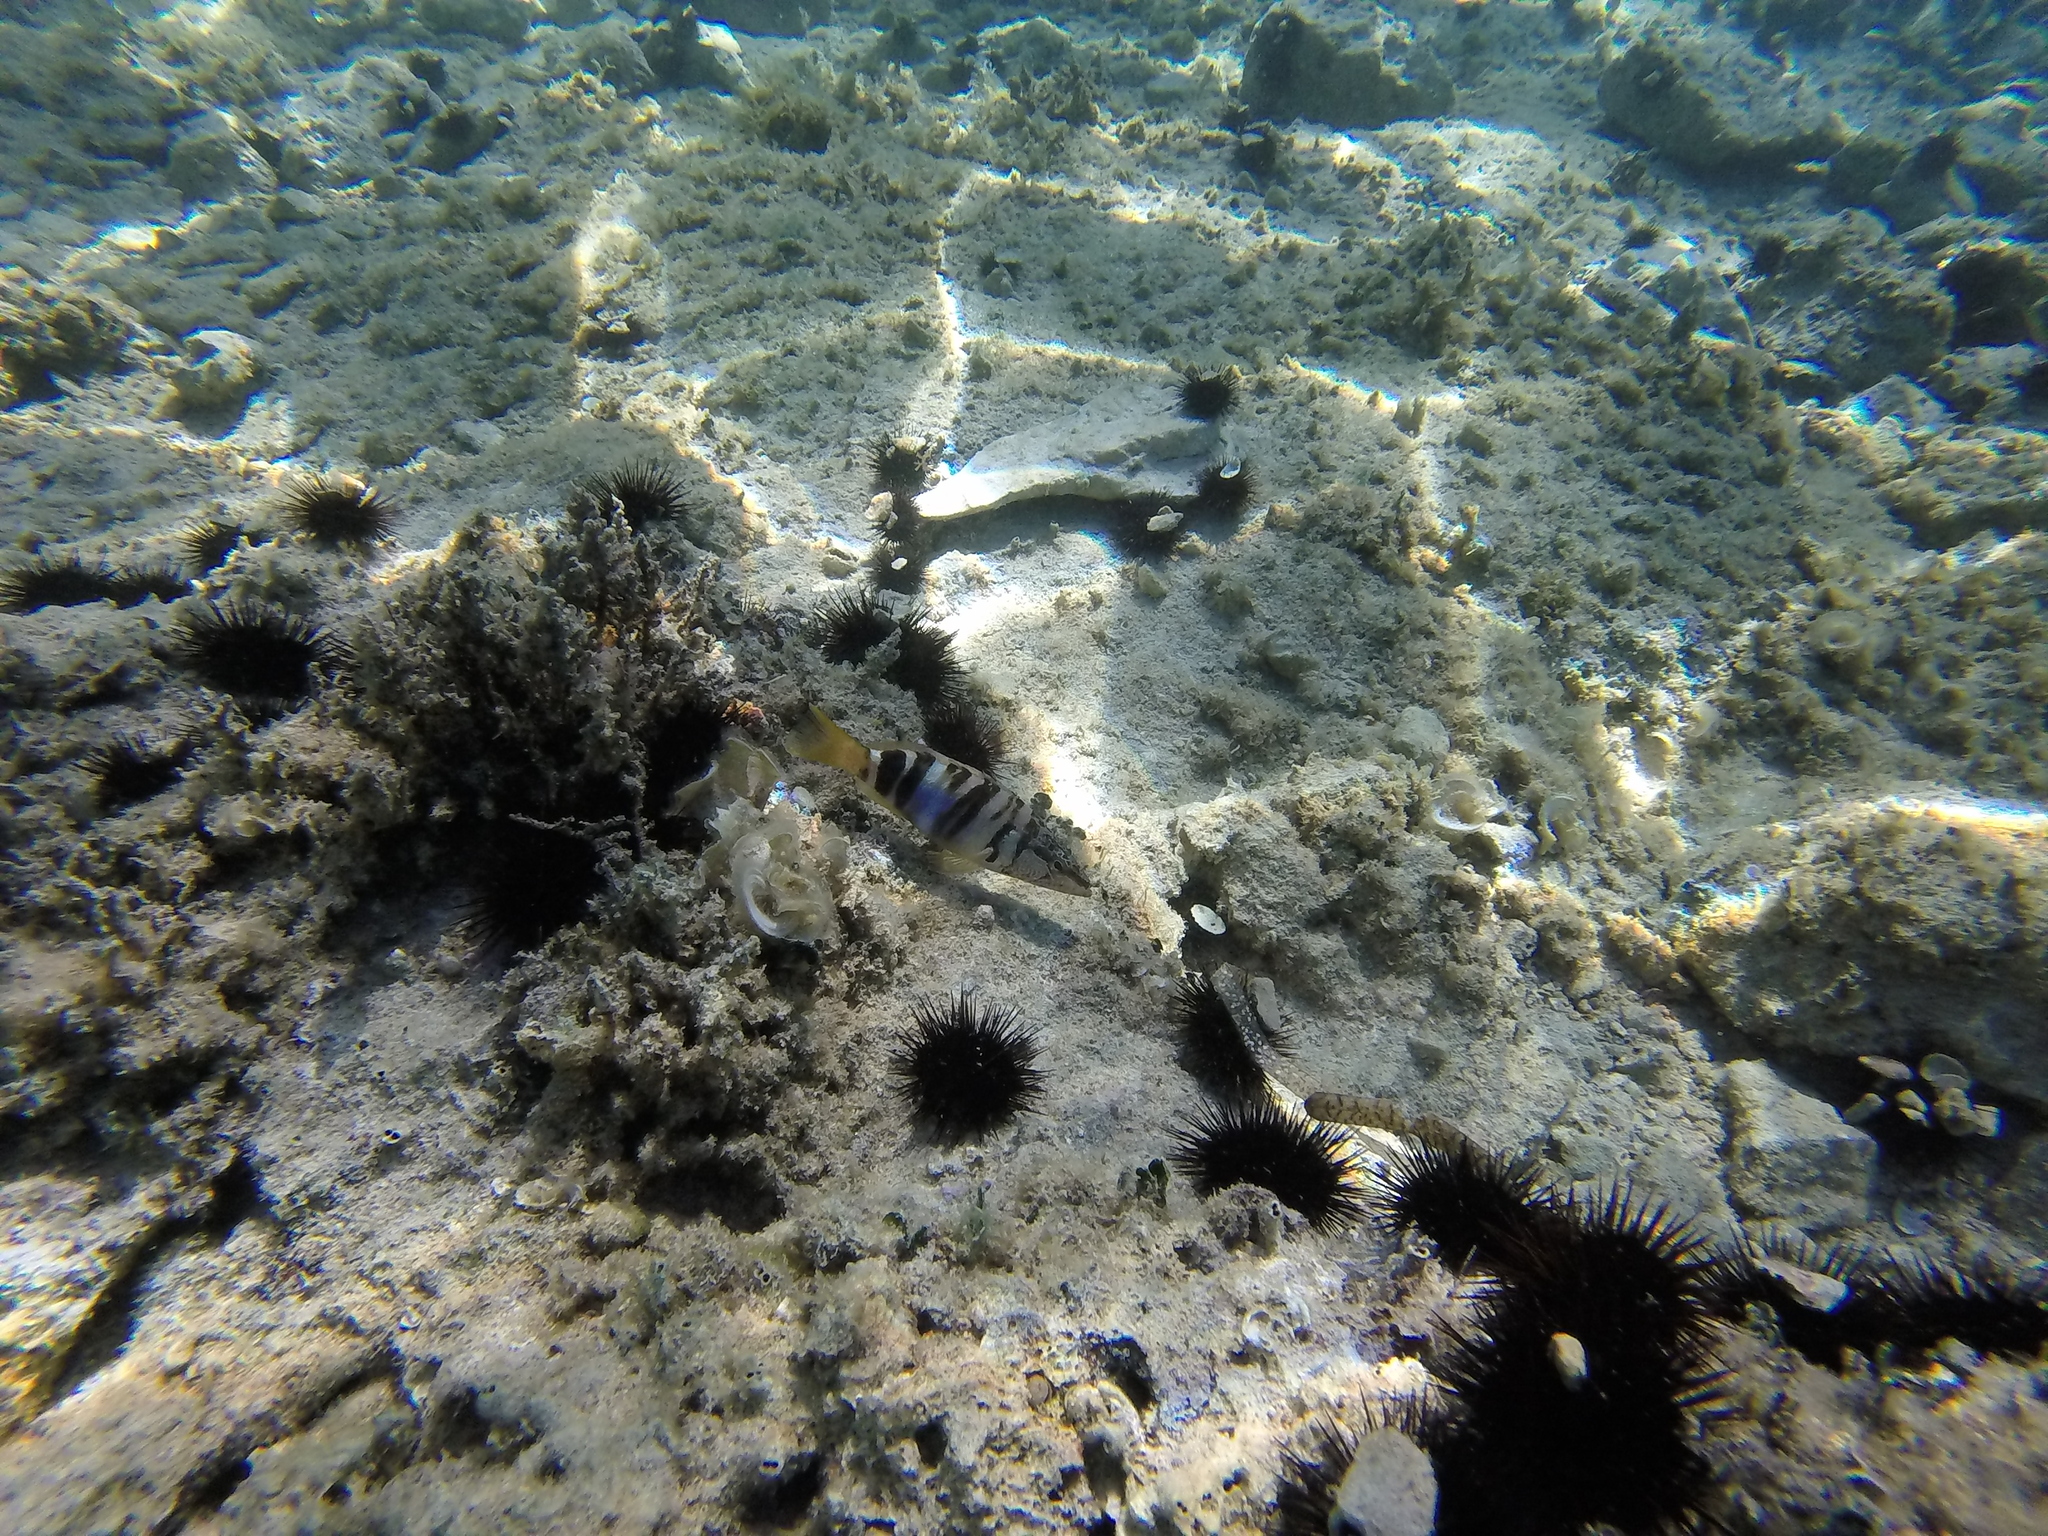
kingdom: Animalia
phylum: Chordata
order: Perciformes
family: Serranidae
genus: Serranus
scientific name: Serranus scriba
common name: Painted comber
